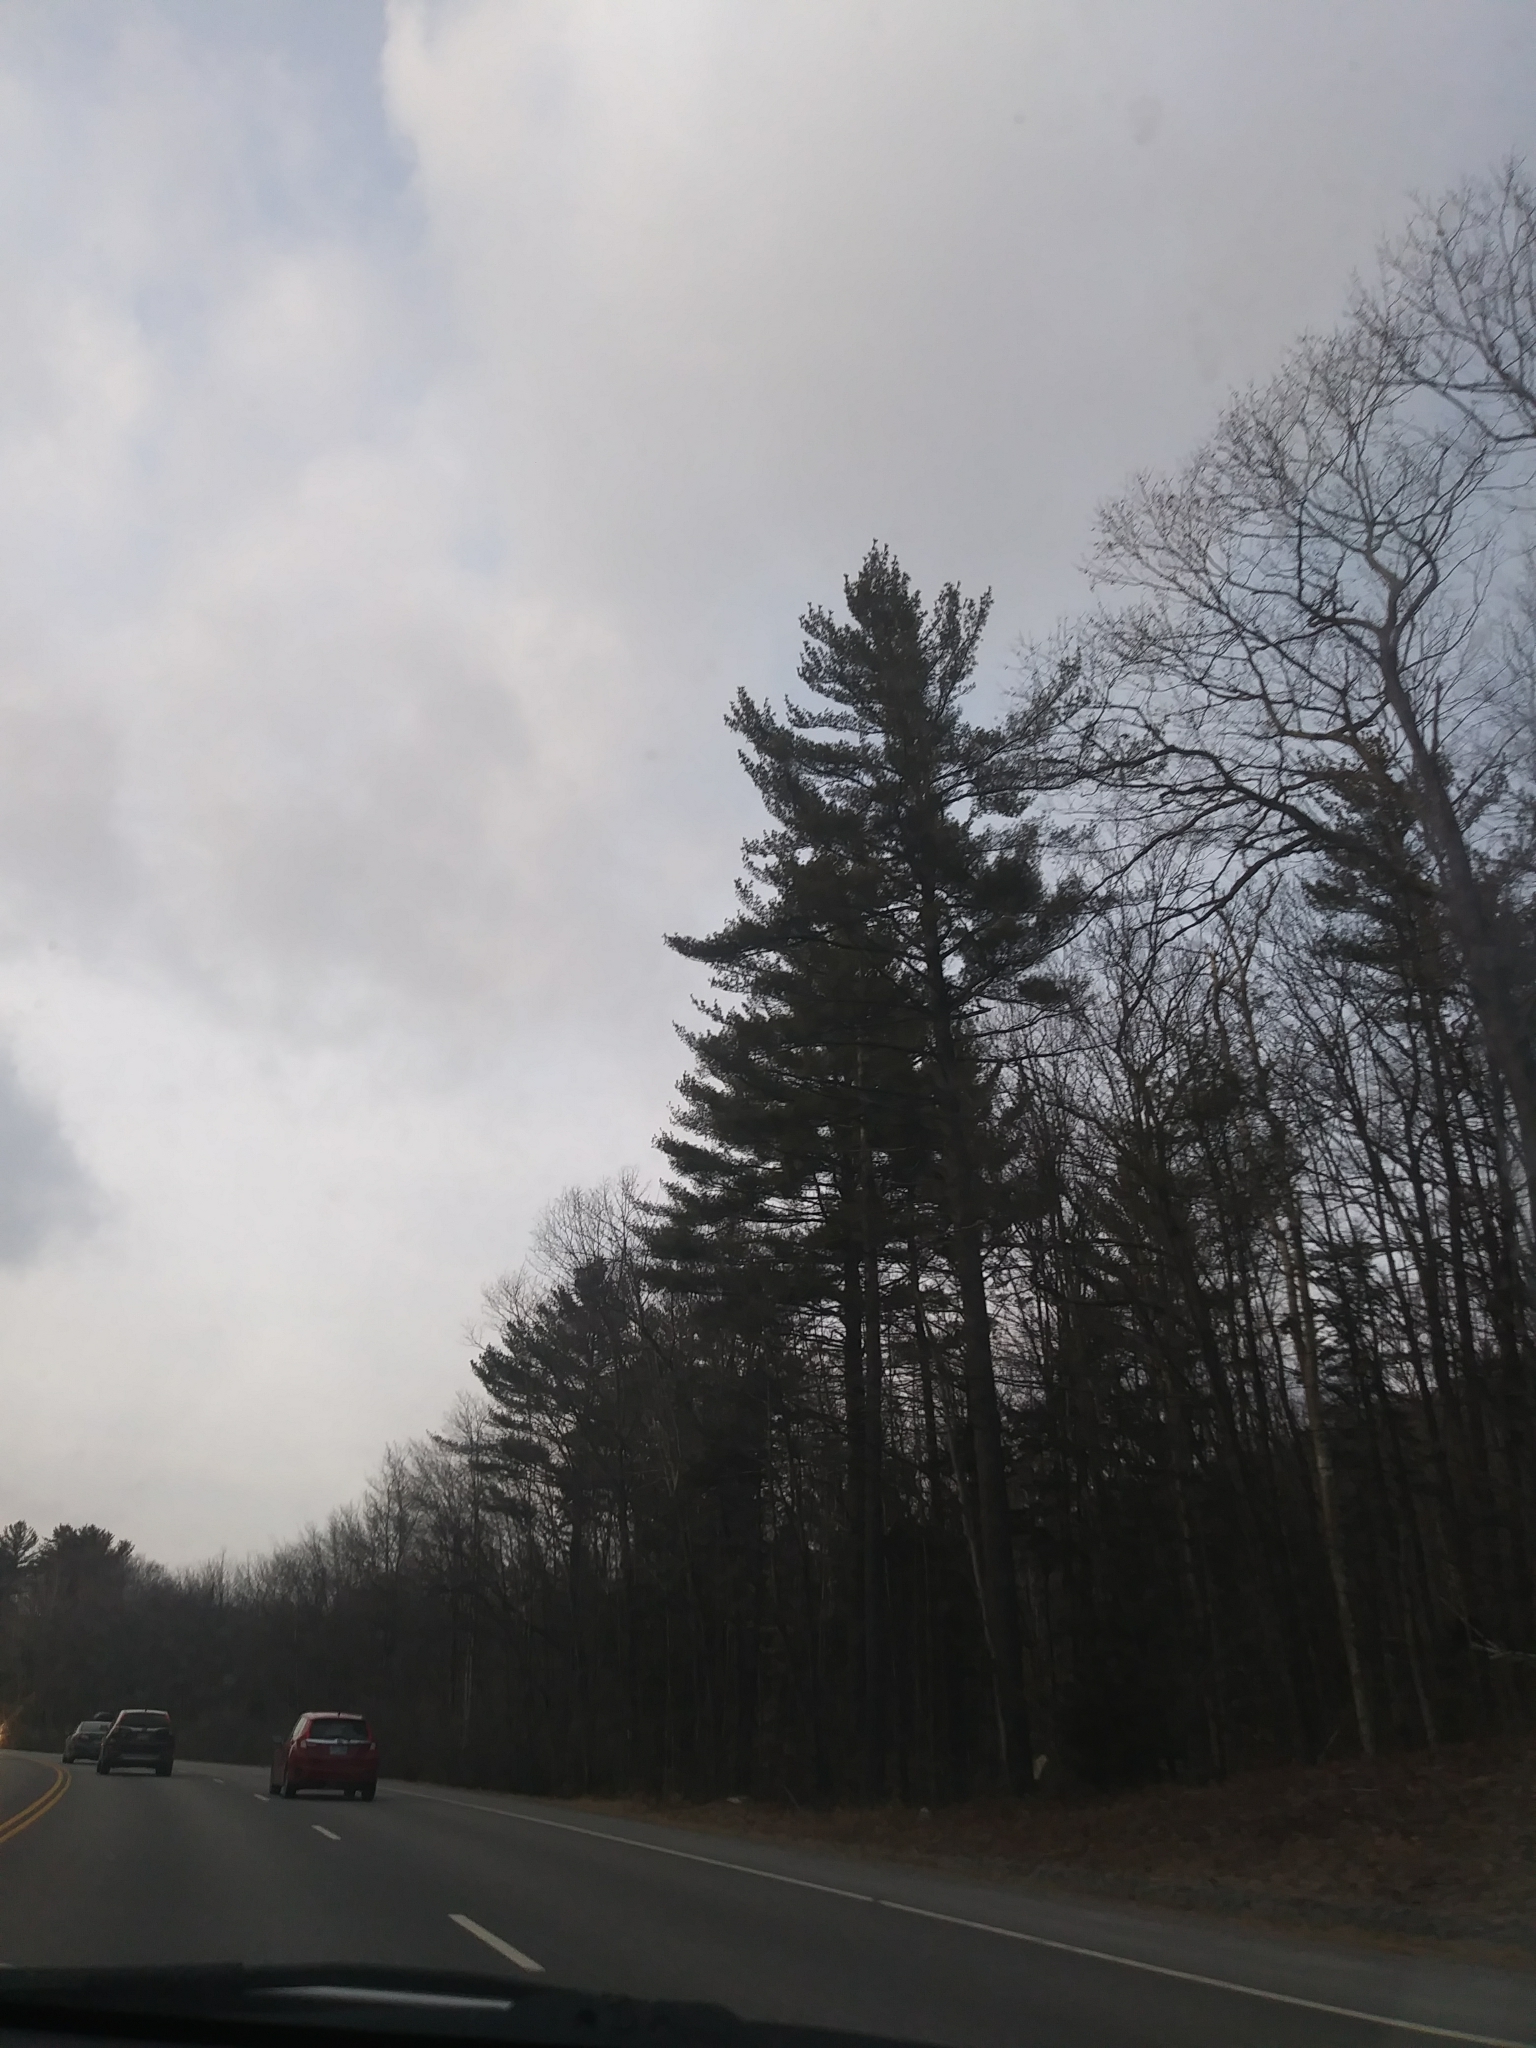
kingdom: Plantae
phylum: Tracheophyta
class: Pinopsida
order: Pinales
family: Pinaceae
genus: Pinus
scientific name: Pinus strobus
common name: Weymouth pine
